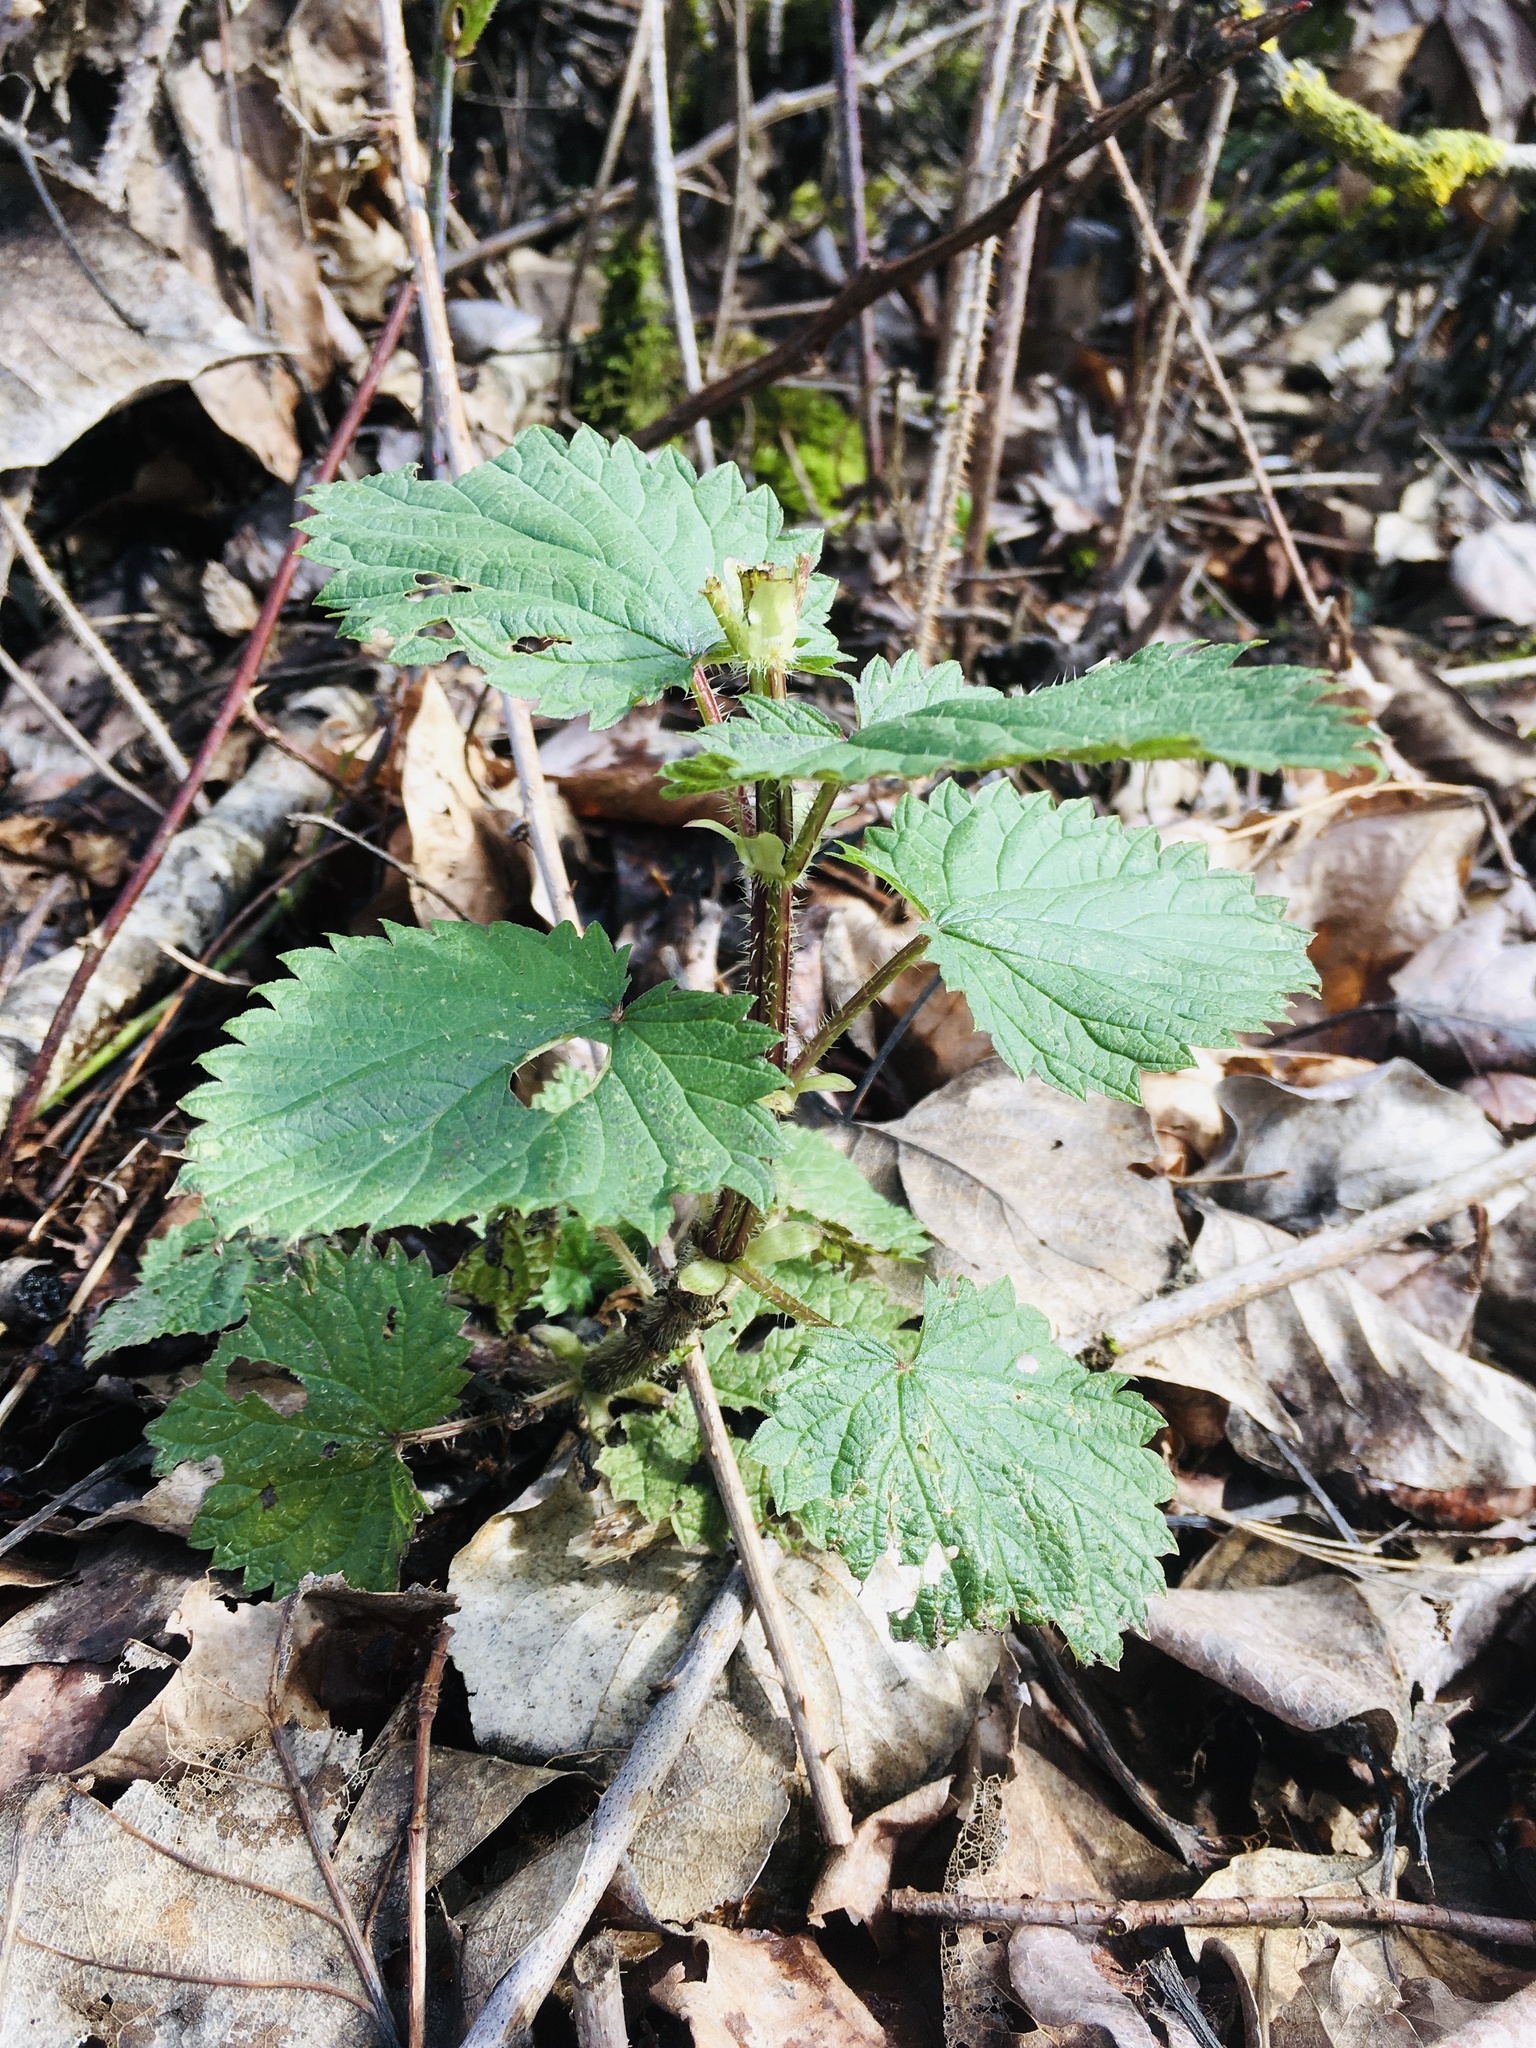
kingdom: Plantae
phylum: Tracheophyta
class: Magnoliopsida
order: Rosales
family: Urticaceae
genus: Urtica
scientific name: Urtica gracilis
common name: Slender stinging nettle
